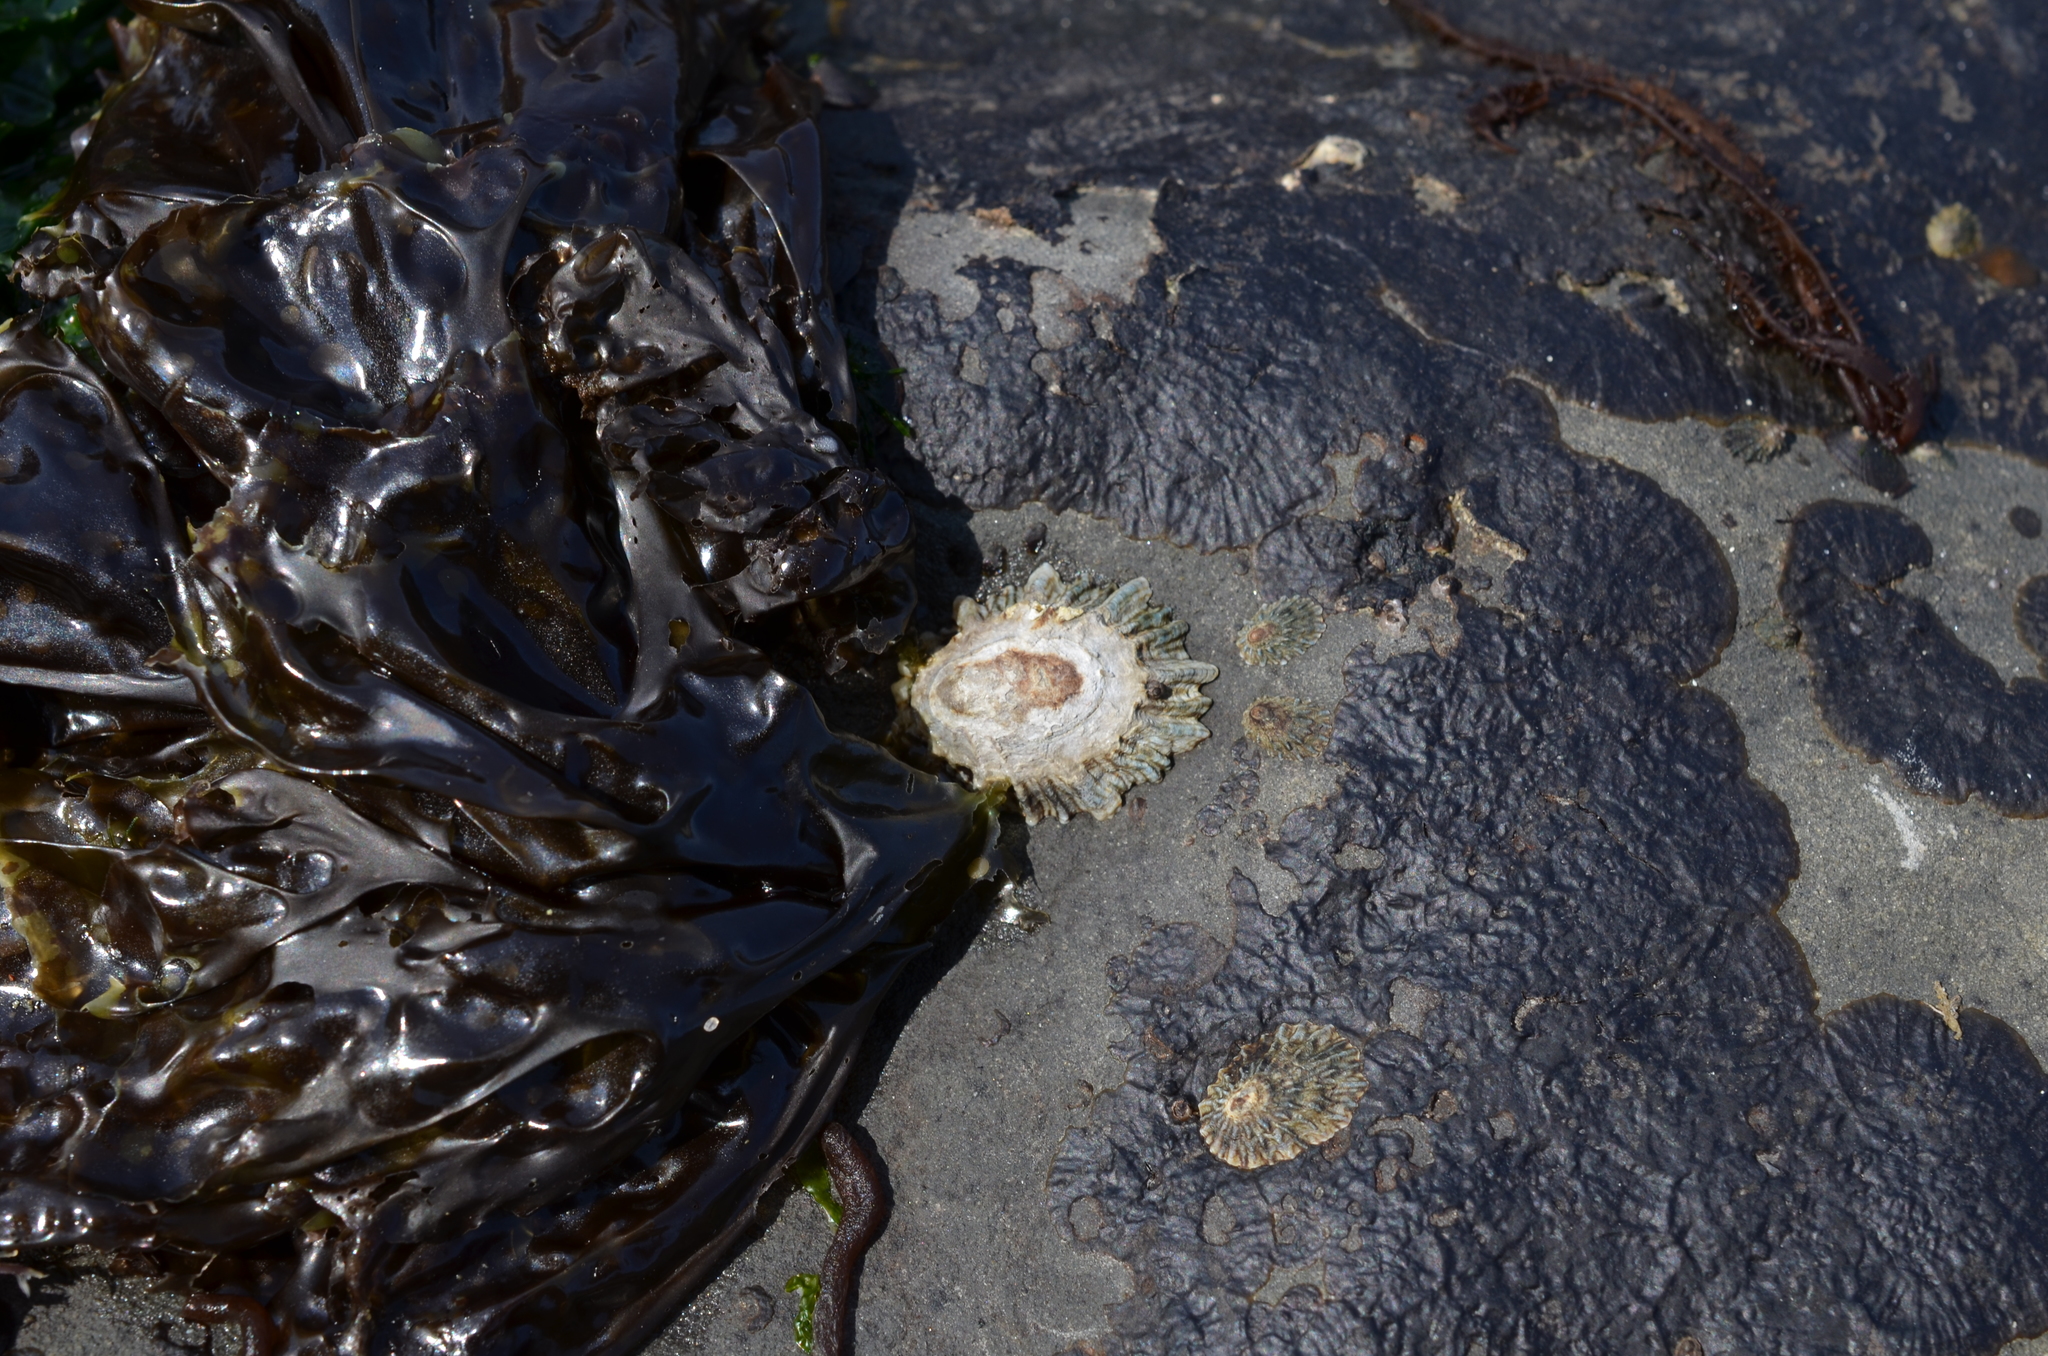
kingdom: Animalia
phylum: Mollusca
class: Gastropoda
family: Lottiidae
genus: Lottia
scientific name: Lottia scabra
